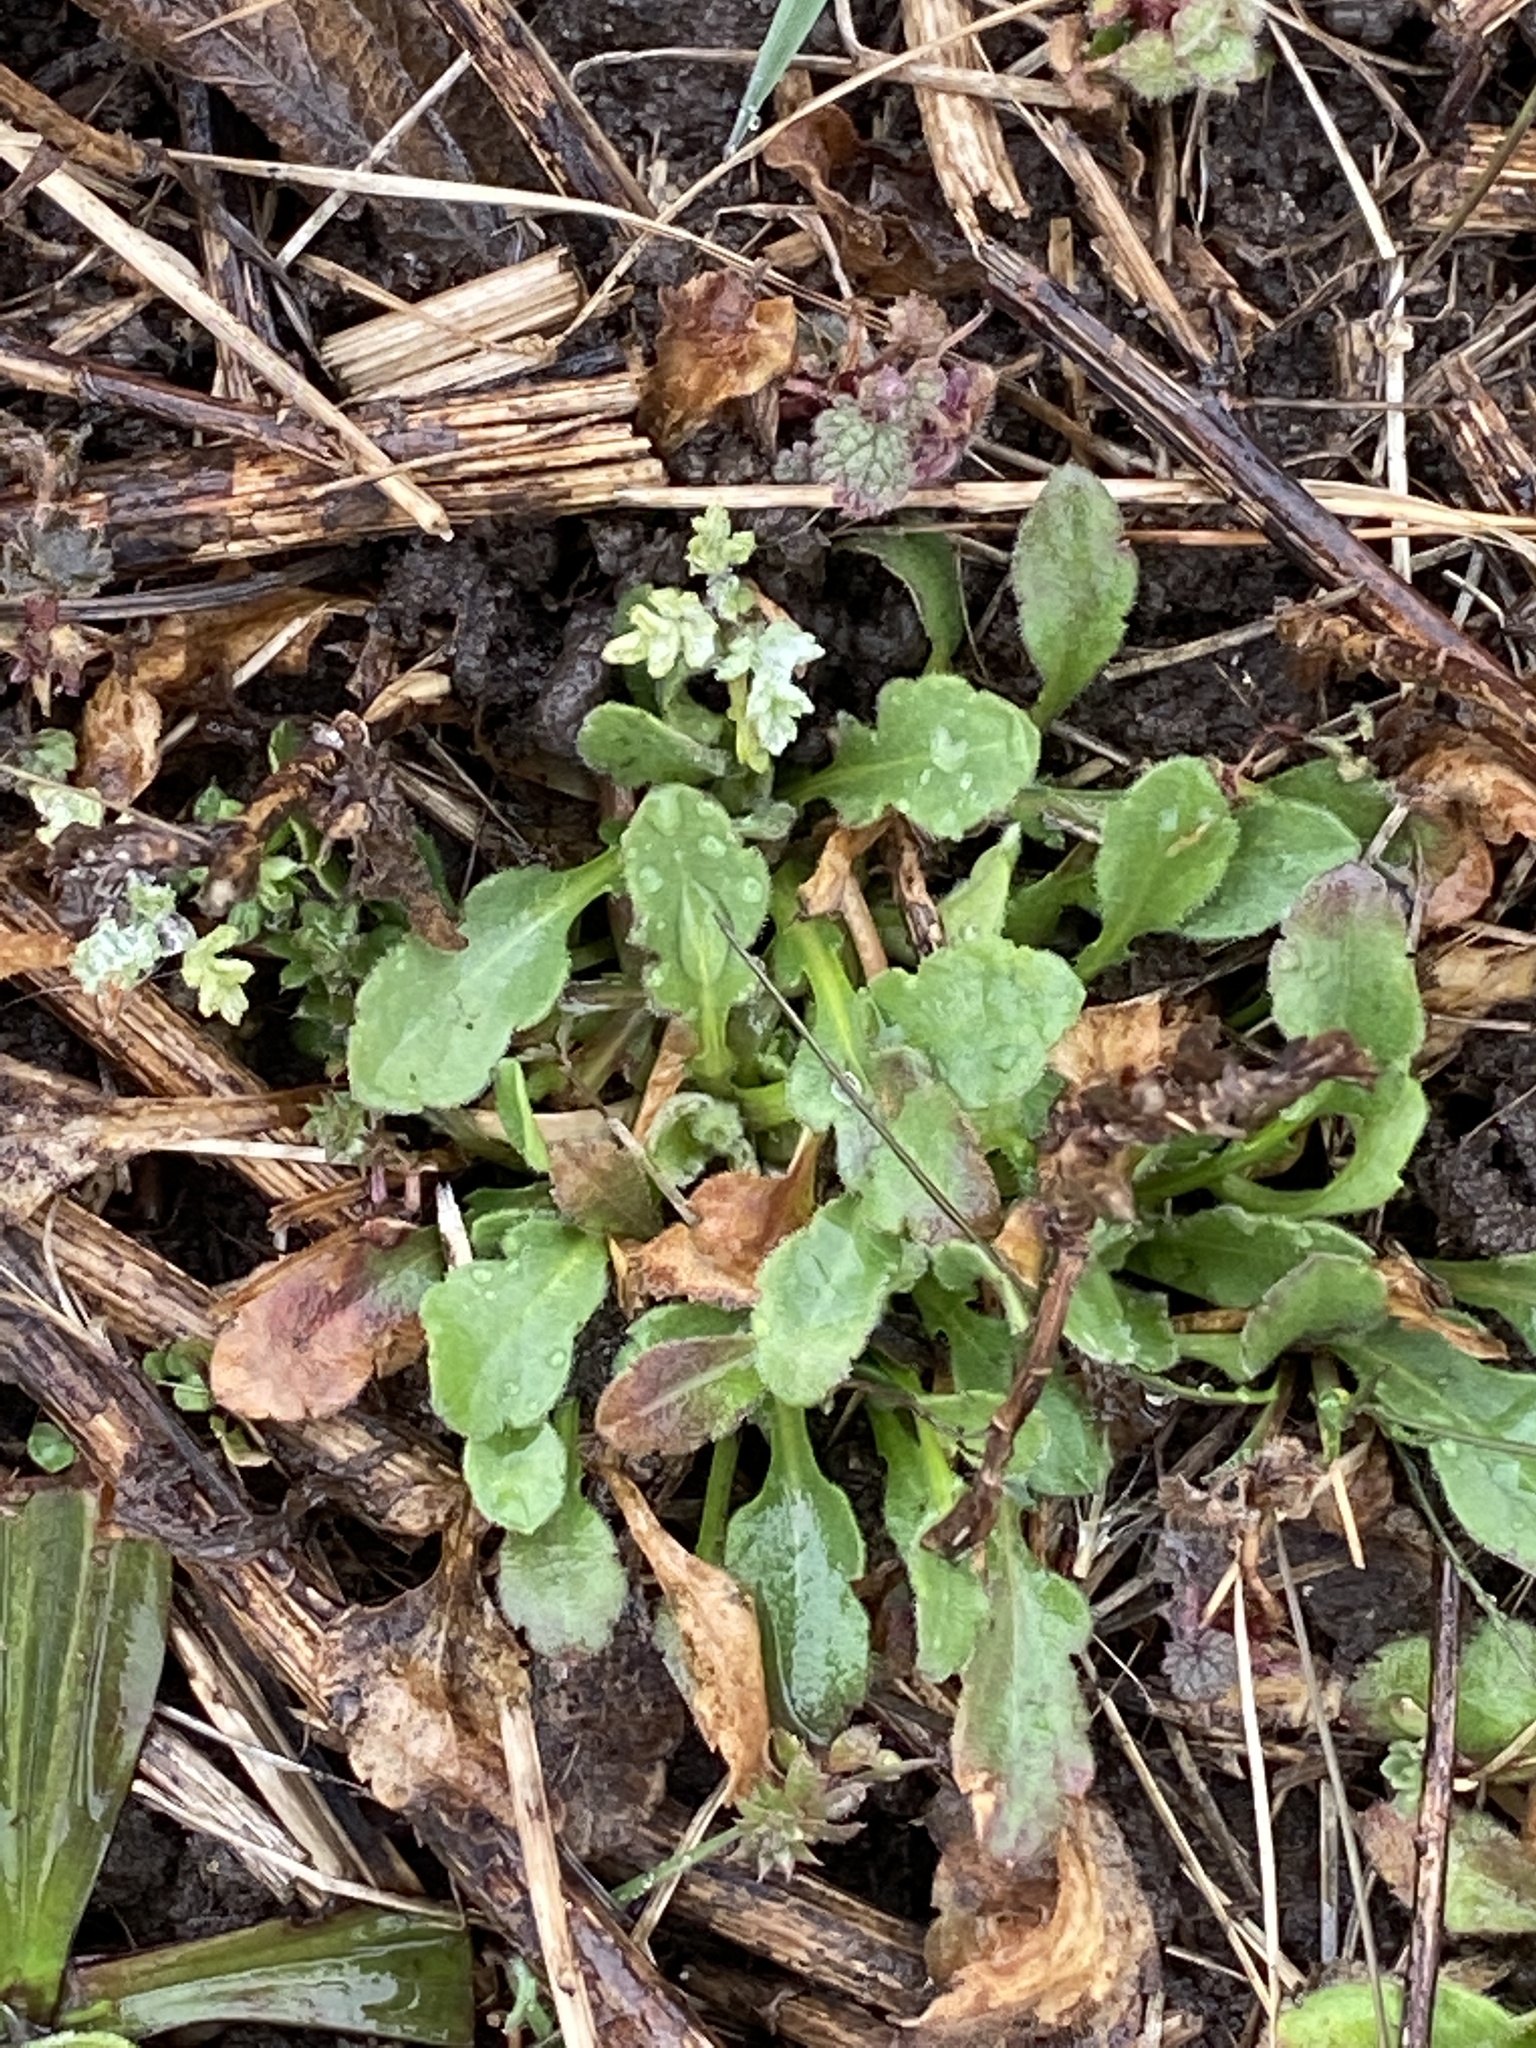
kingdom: Plantae
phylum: Tracheophyta
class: Magnoliopsida
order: Asterales
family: Asteraceae
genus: Erigeron
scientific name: Erigeron canadensis
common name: Canadian fleabane
